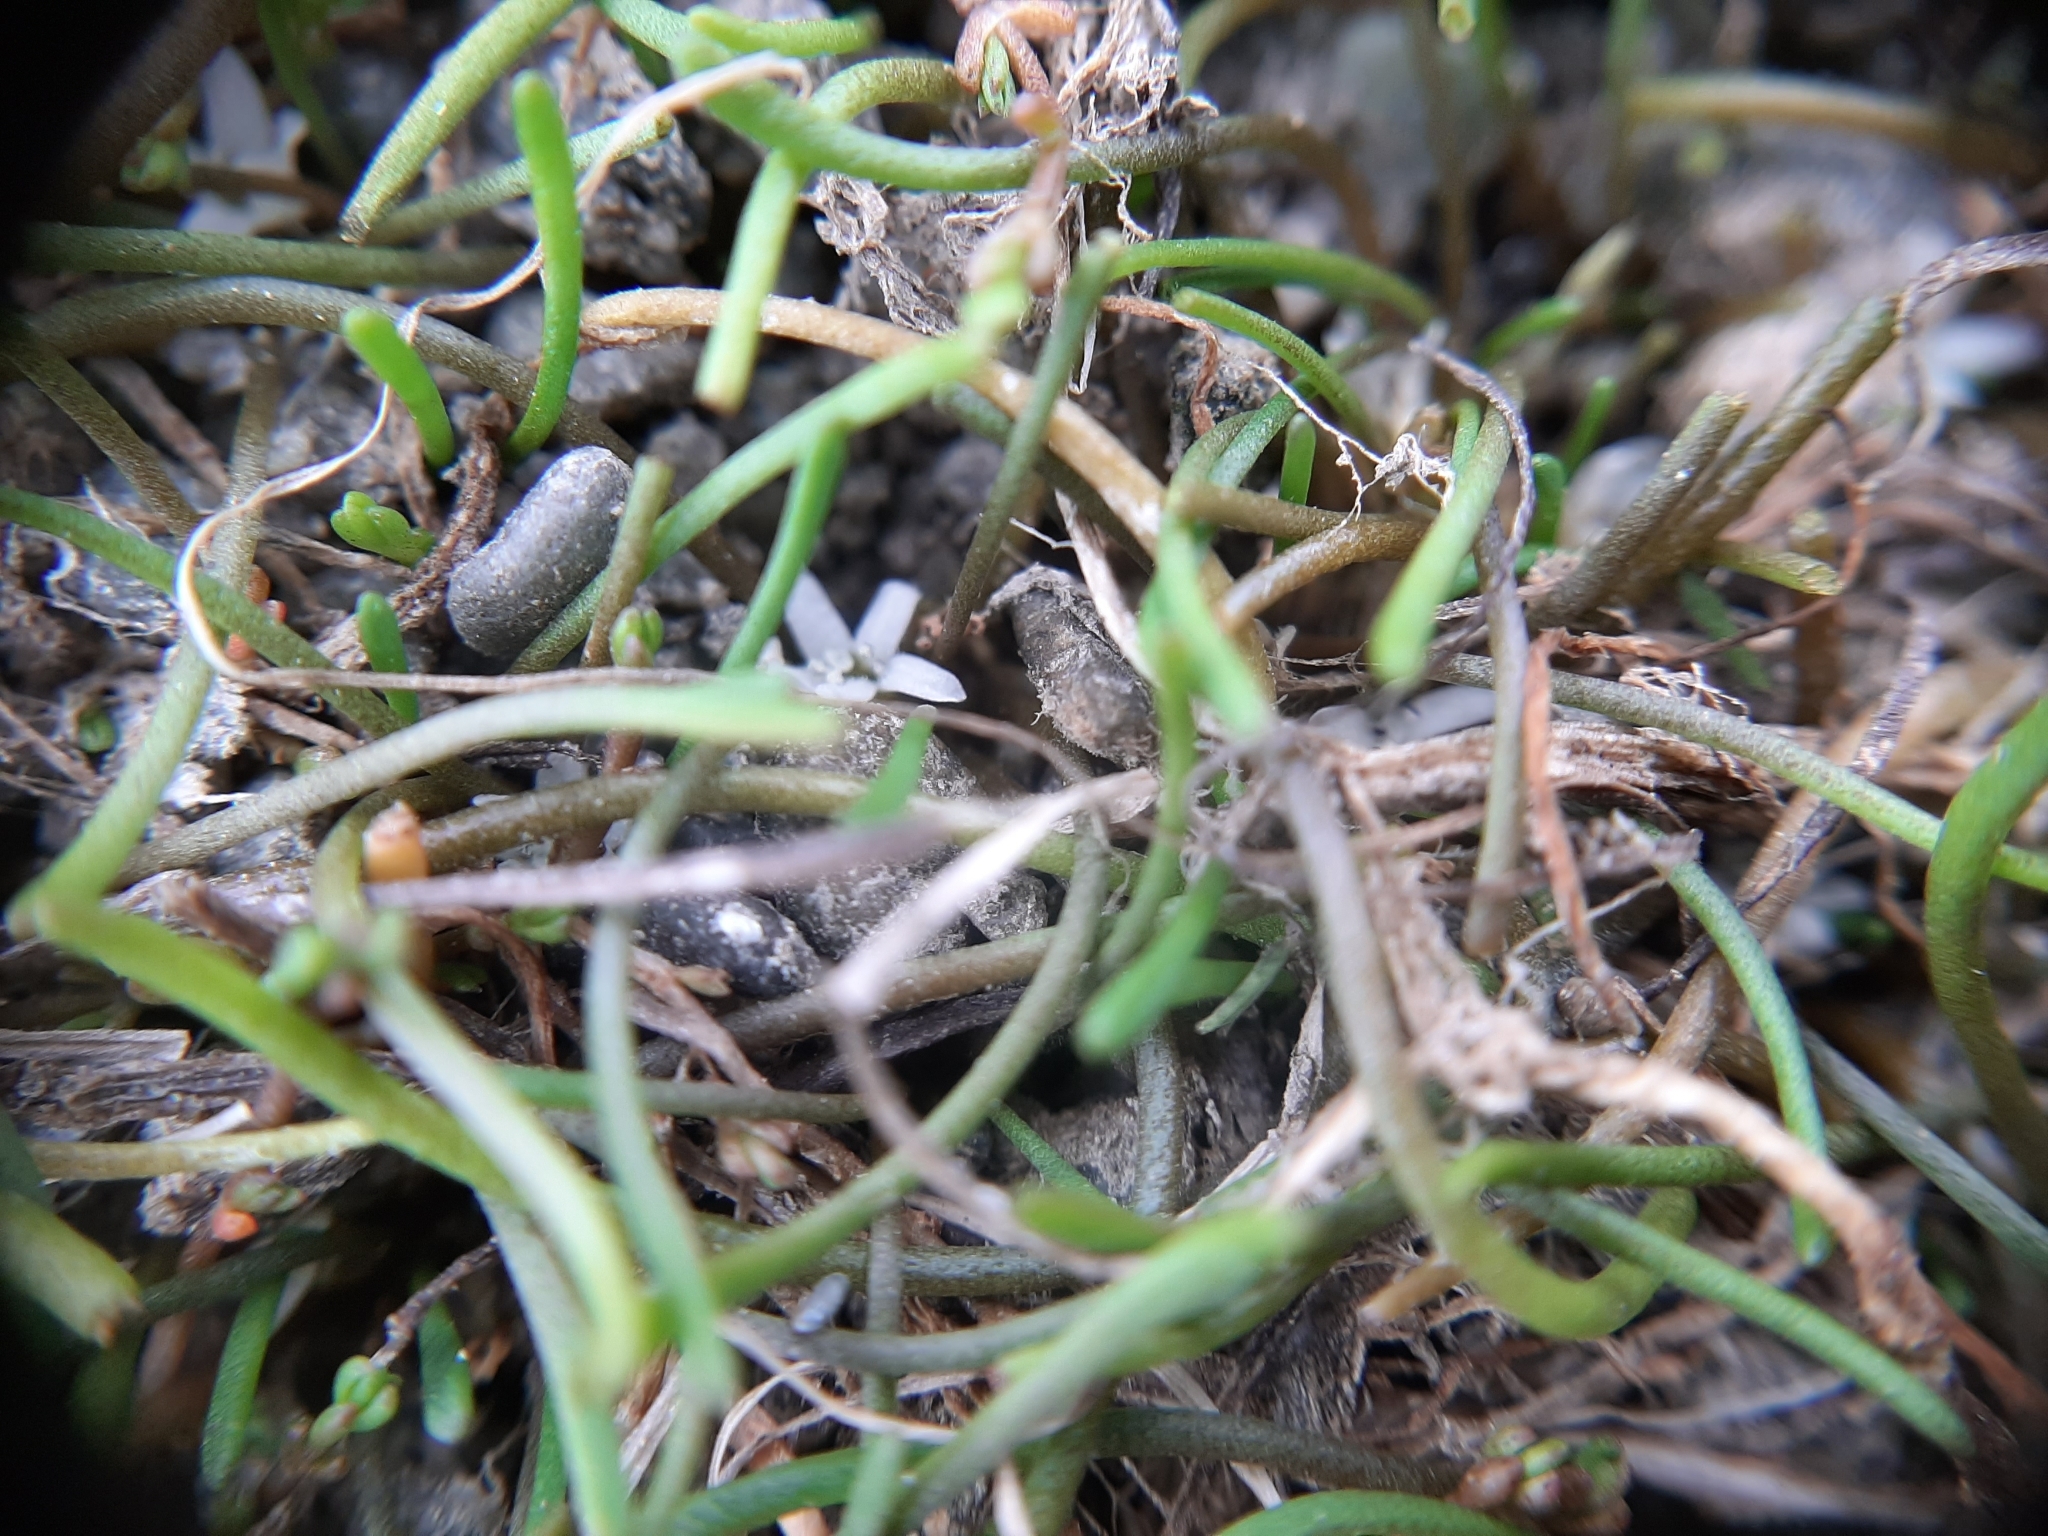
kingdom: Plantae
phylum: Tracheophyta
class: Magnoliopsida
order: Lamiales
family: Scrophulariaceae
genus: Limosella
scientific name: Limosella australis
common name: Welsh mudwort
